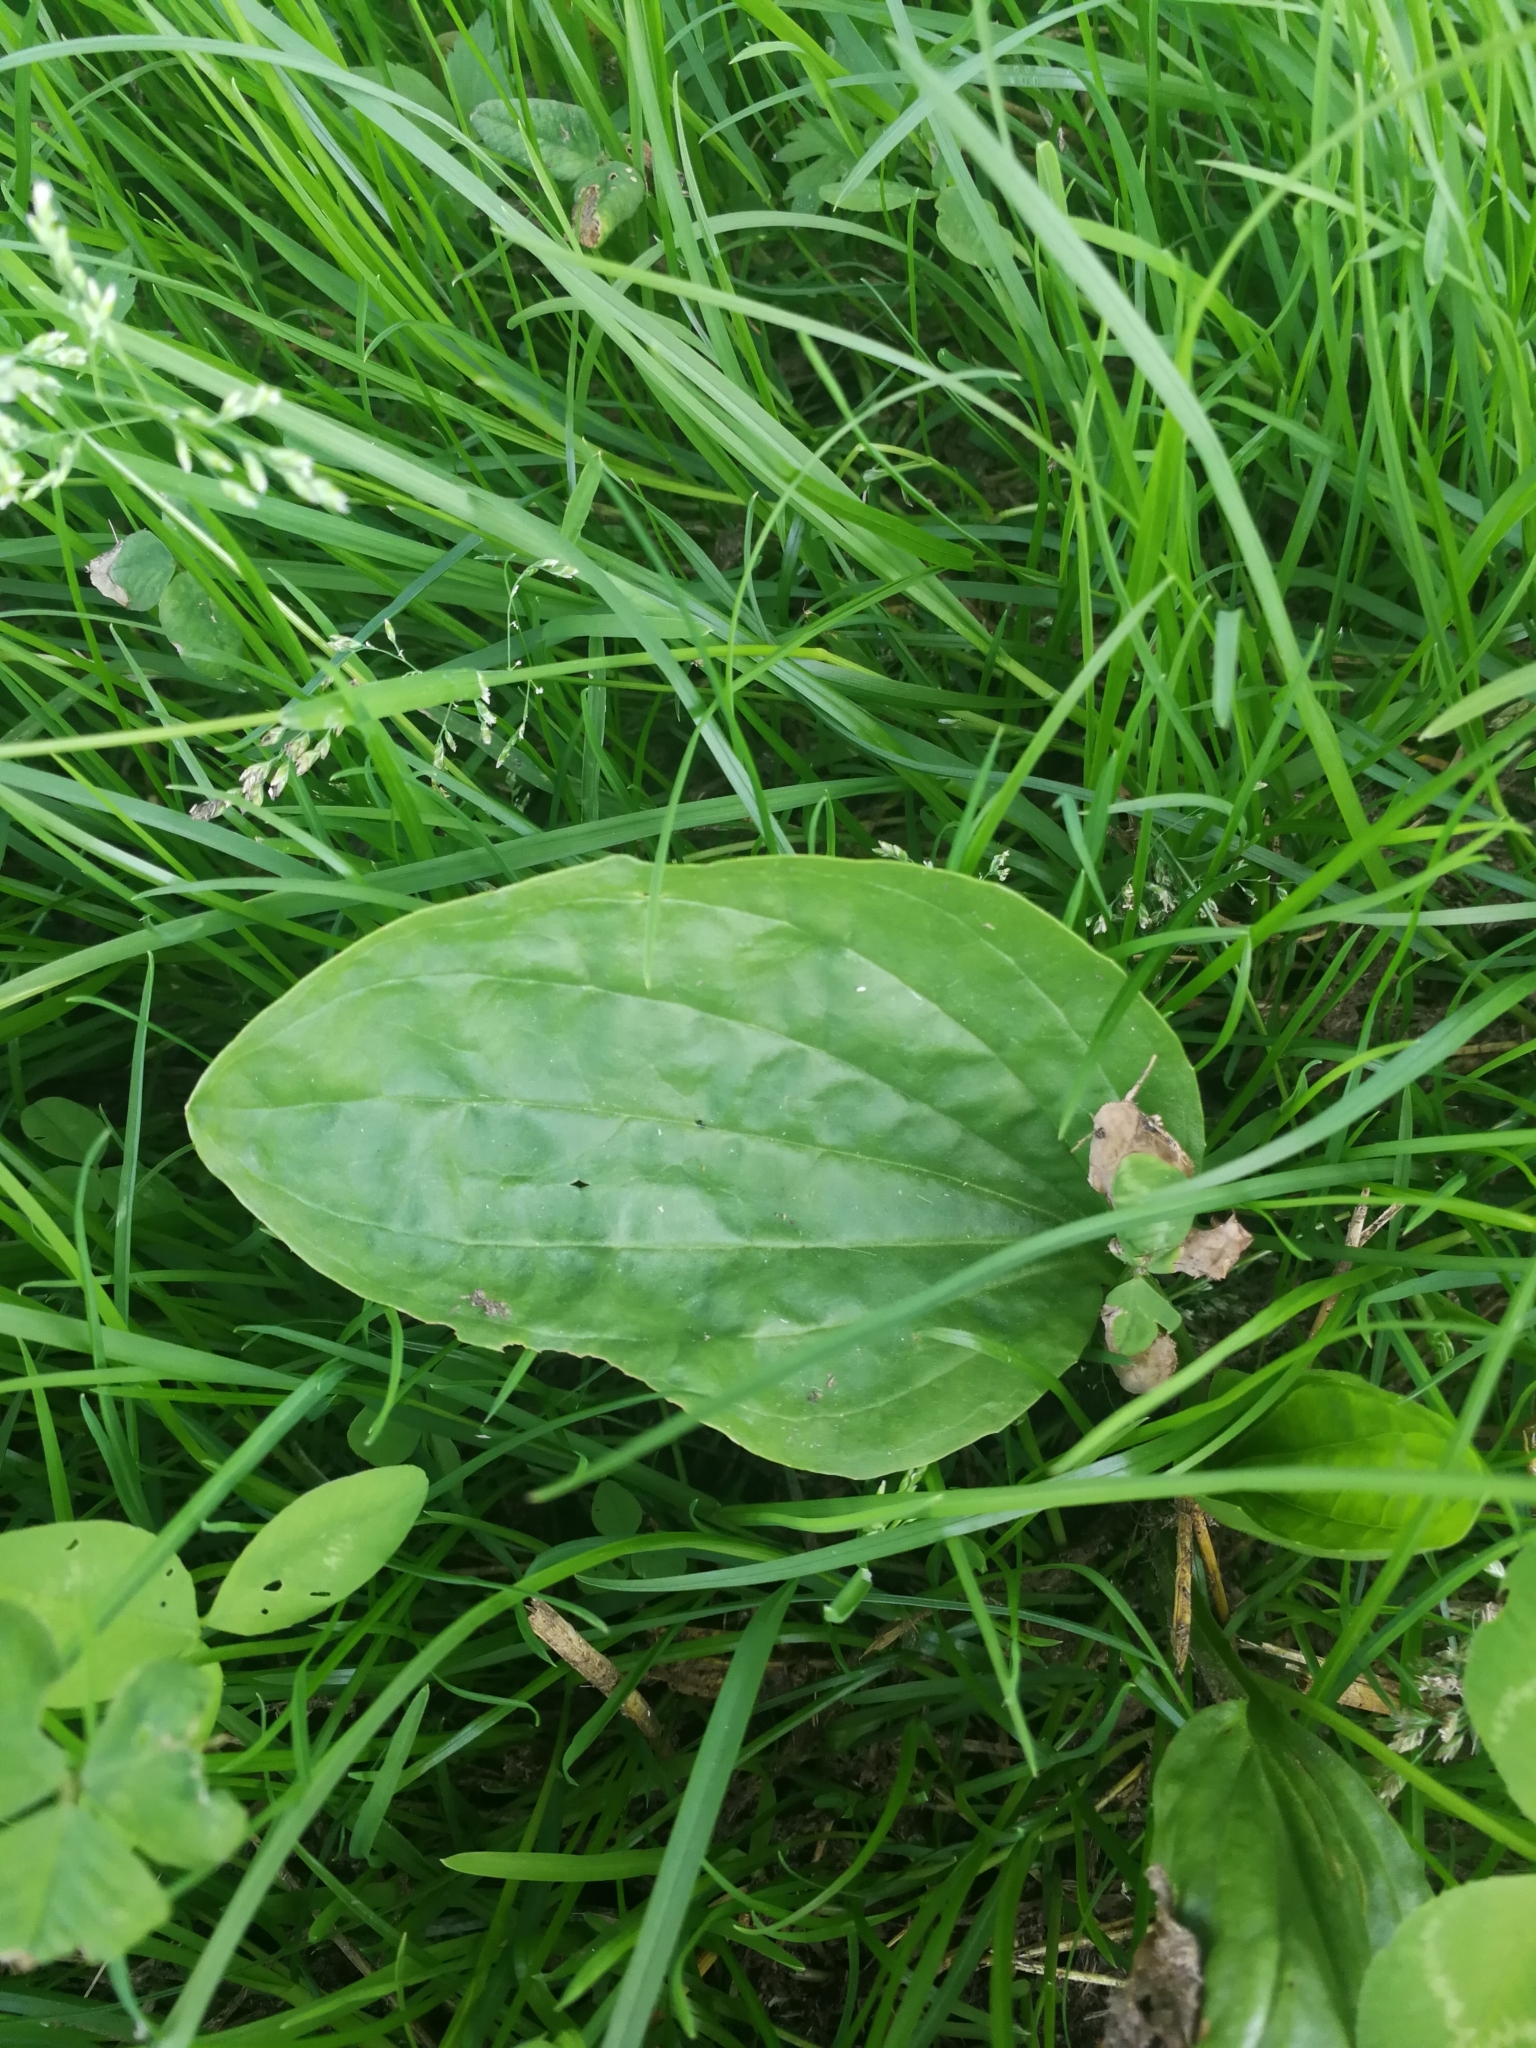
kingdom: Plantae
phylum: Tracheophyta
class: Magnoliopsida
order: Lamiales
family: Plantaginaceae
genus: Plantago
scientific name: Plantago major
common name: Common plantain
